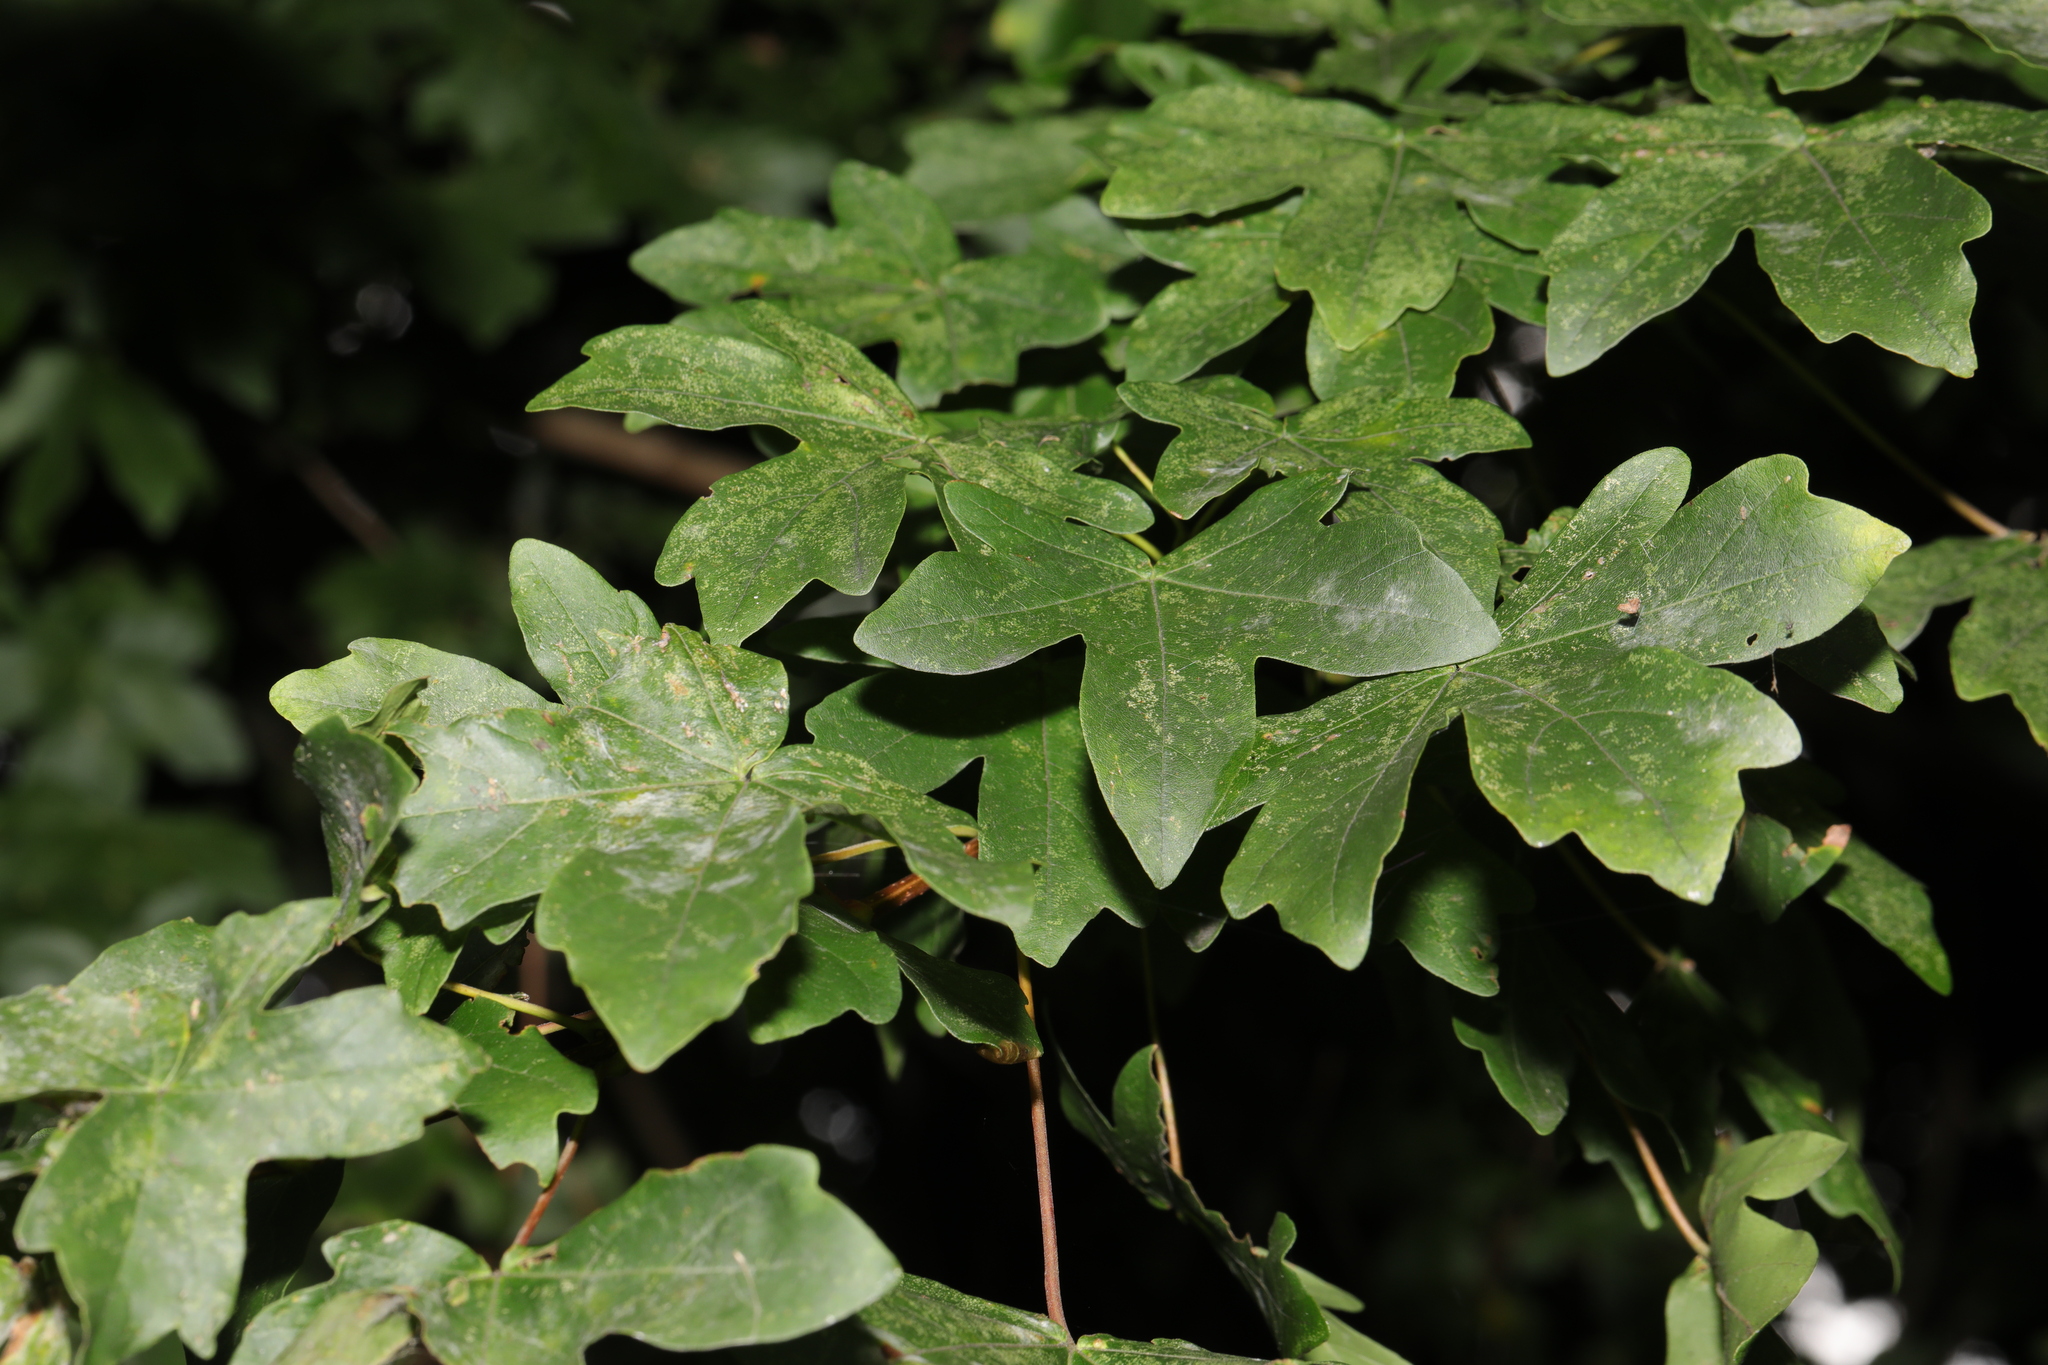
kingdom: Plantae
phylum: Tracheophyta
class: Magnoliopsida
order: Sapindales
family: Sapindaceae
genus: Acer
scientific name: Acer campestre
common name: Field maple
